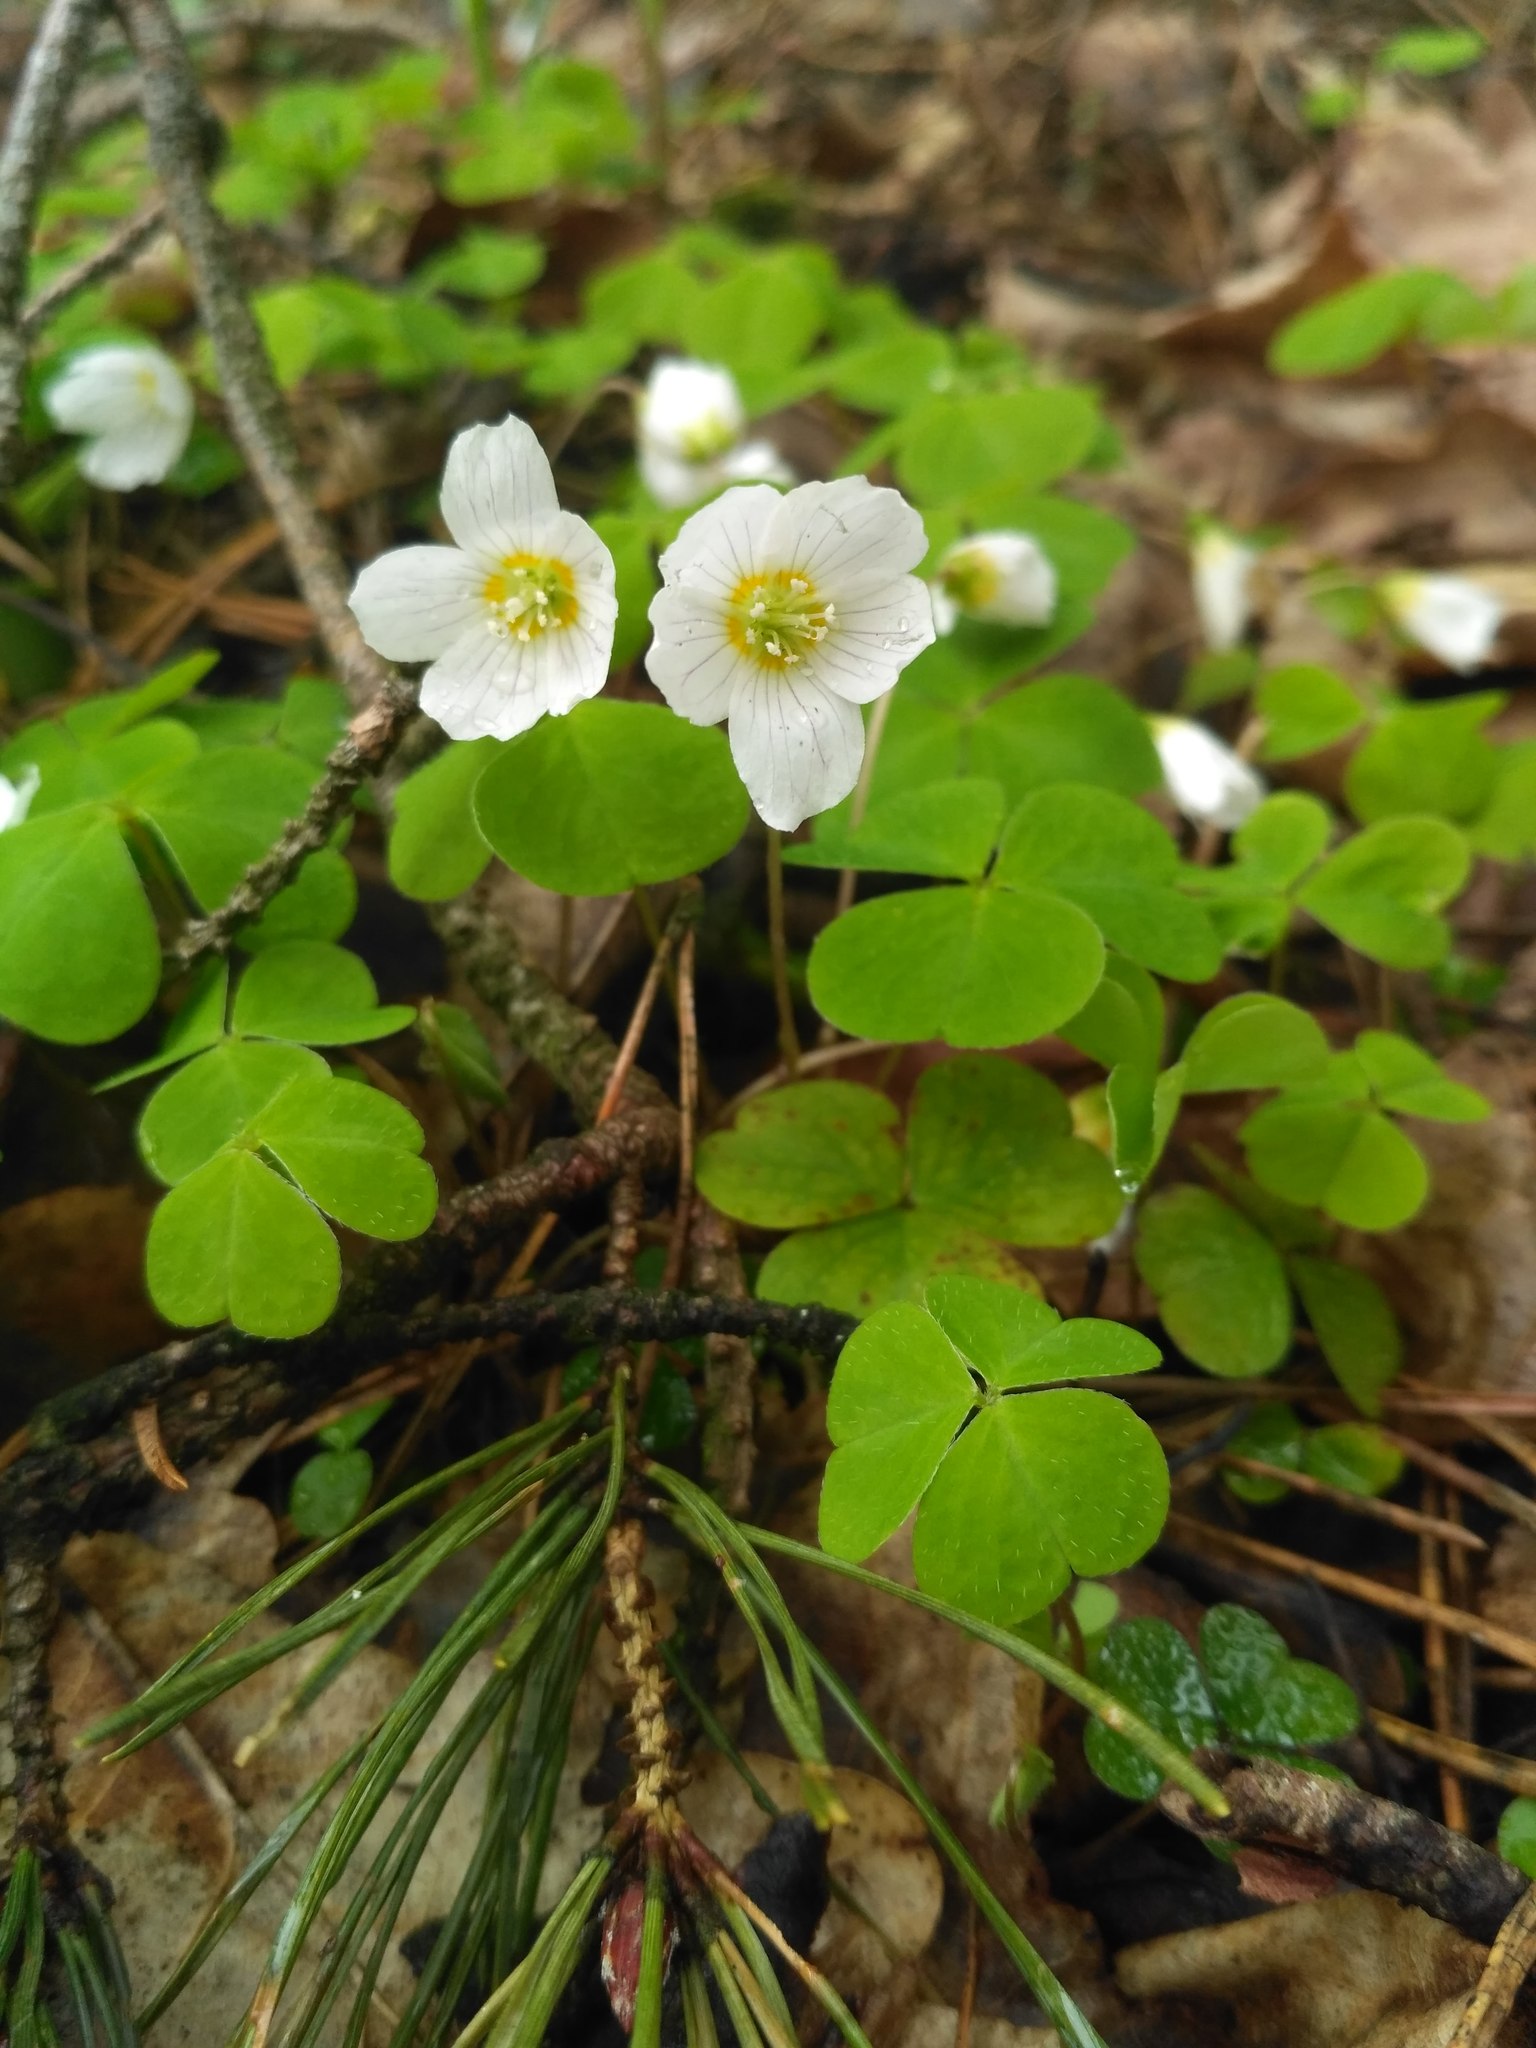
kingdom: Plantae
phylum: Tracheophyta
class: Magnoliopsida
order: Oxalidales
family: Oxalidaceae
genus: Oxalis
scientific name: Oxalis acetosella
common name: Wood-sorrel
